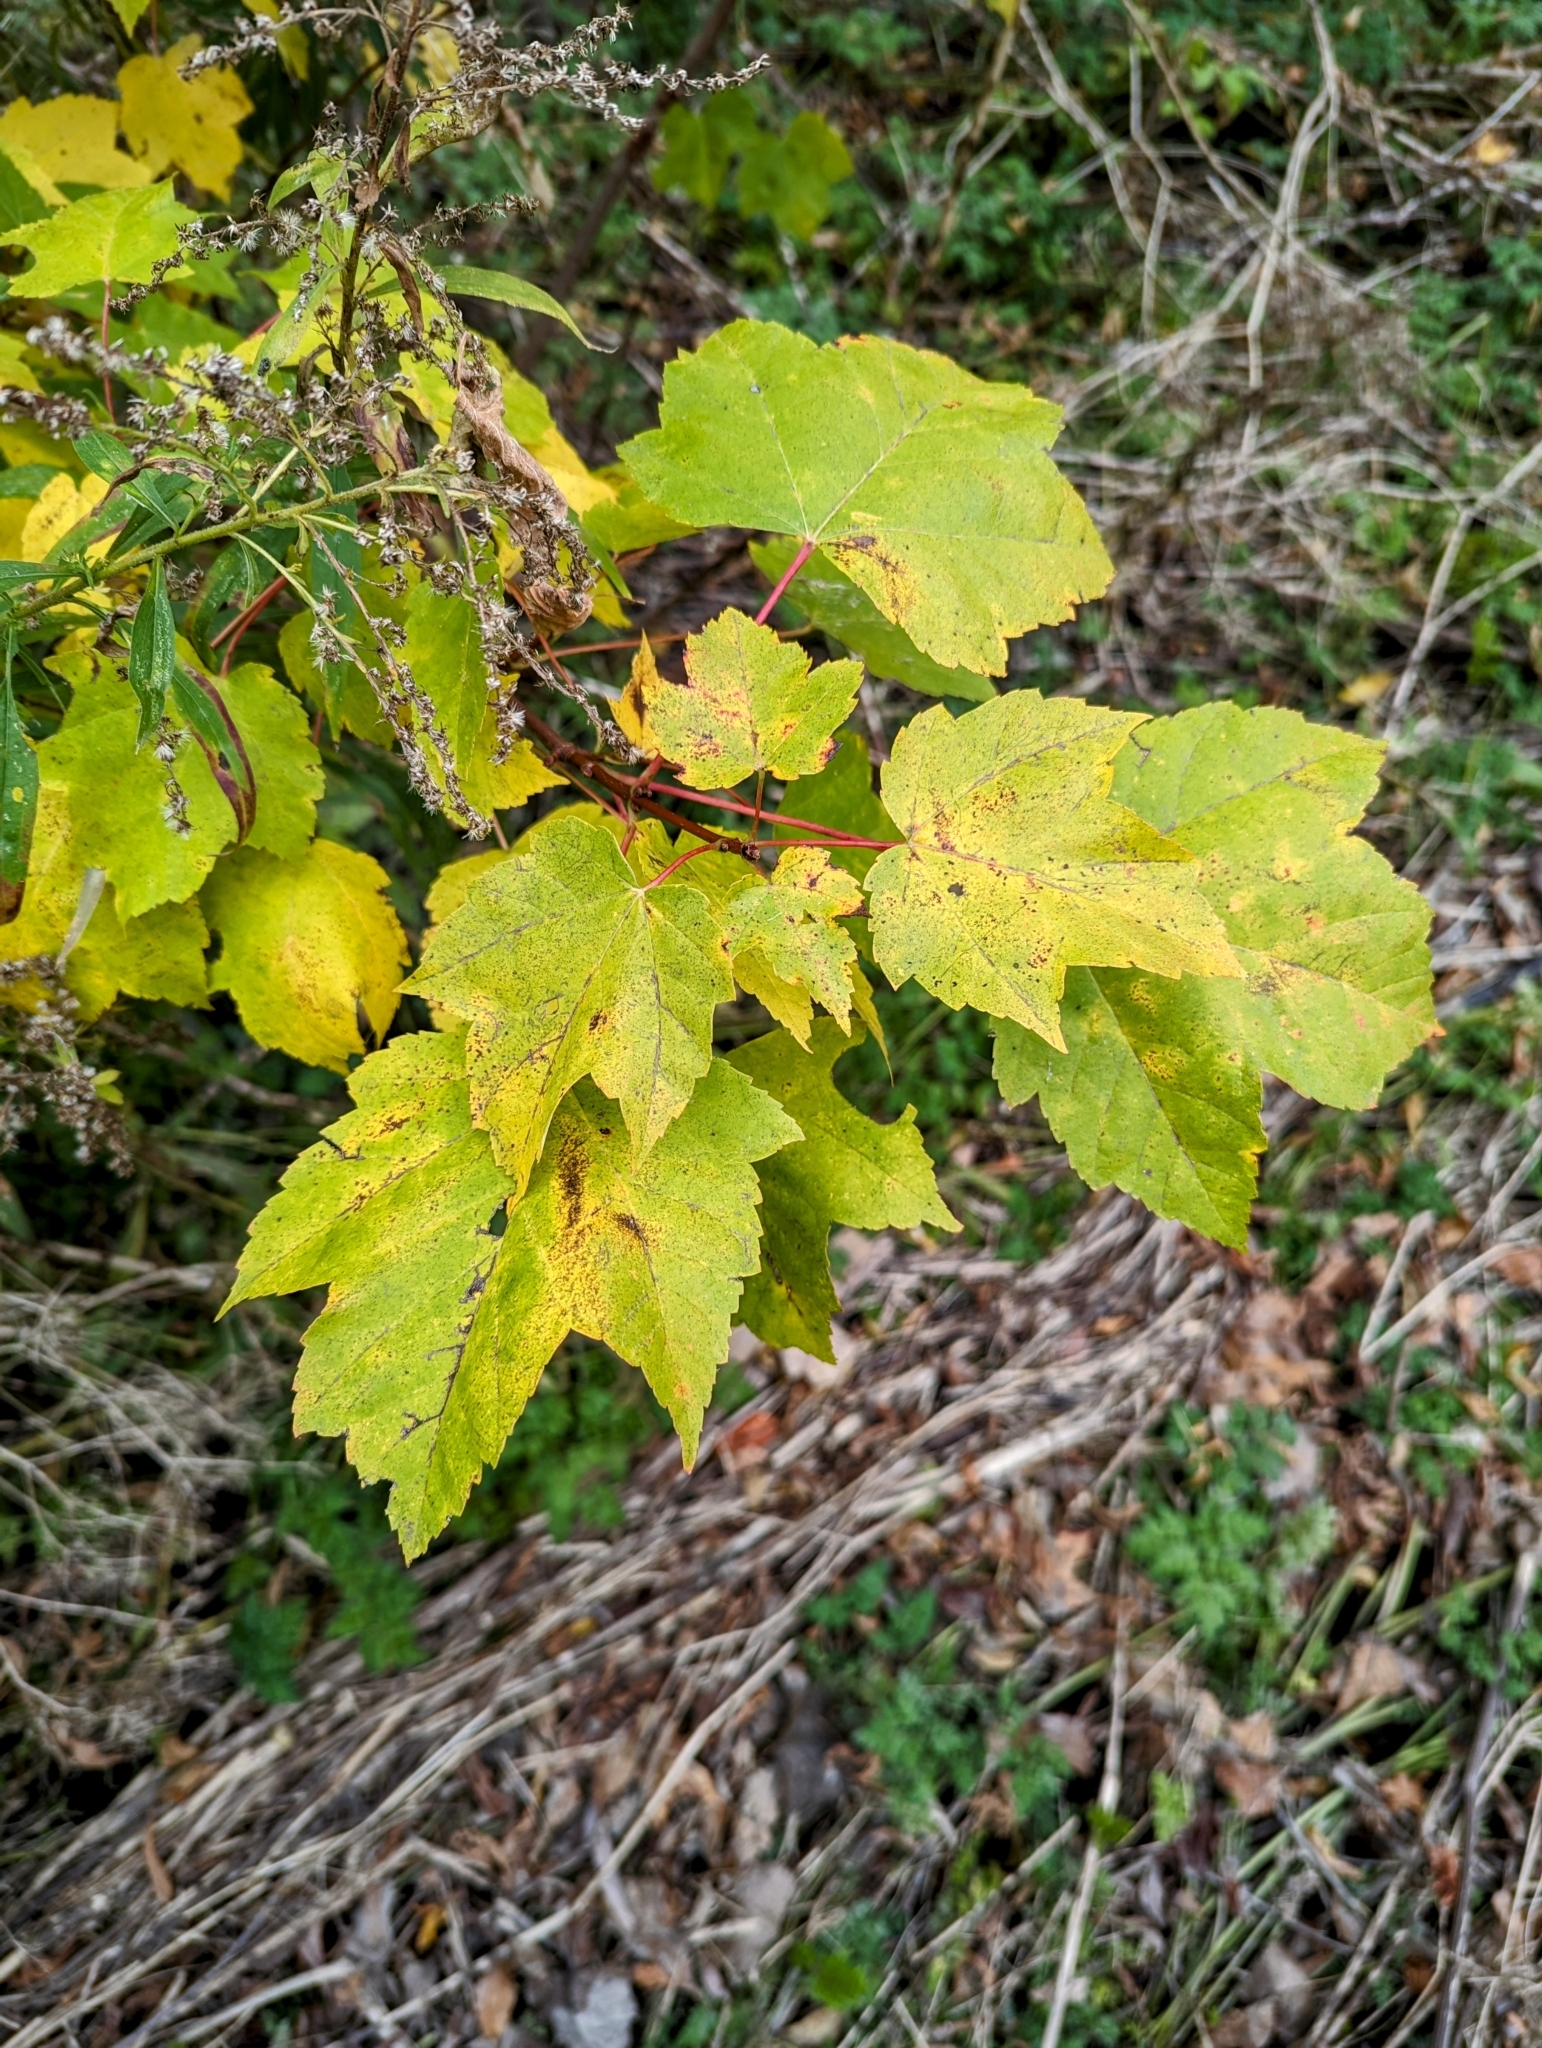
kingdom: Plantae
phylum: Tracheophyta
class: Magnoliopsida
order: Sapindales
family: Sapindaceae
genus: Acer
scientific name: Acer rubrum
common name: Red maple
